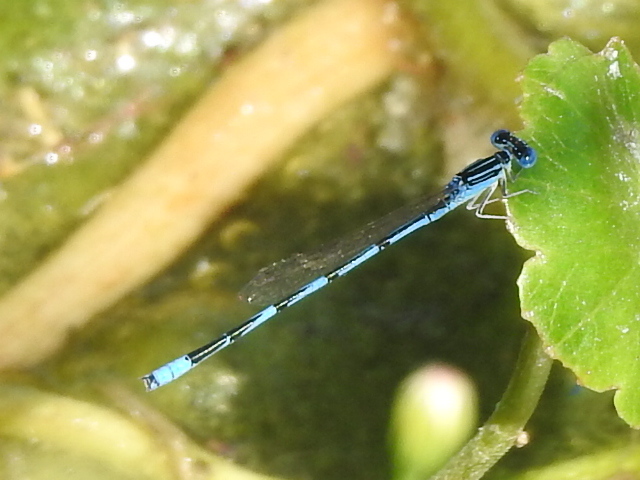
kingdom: Animalia
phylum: Arthropoda
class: Insecta
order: Odonata
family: Coenagrionidae
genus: Enallagma
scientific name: Enallagma basidens
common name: Double-striped bluet
